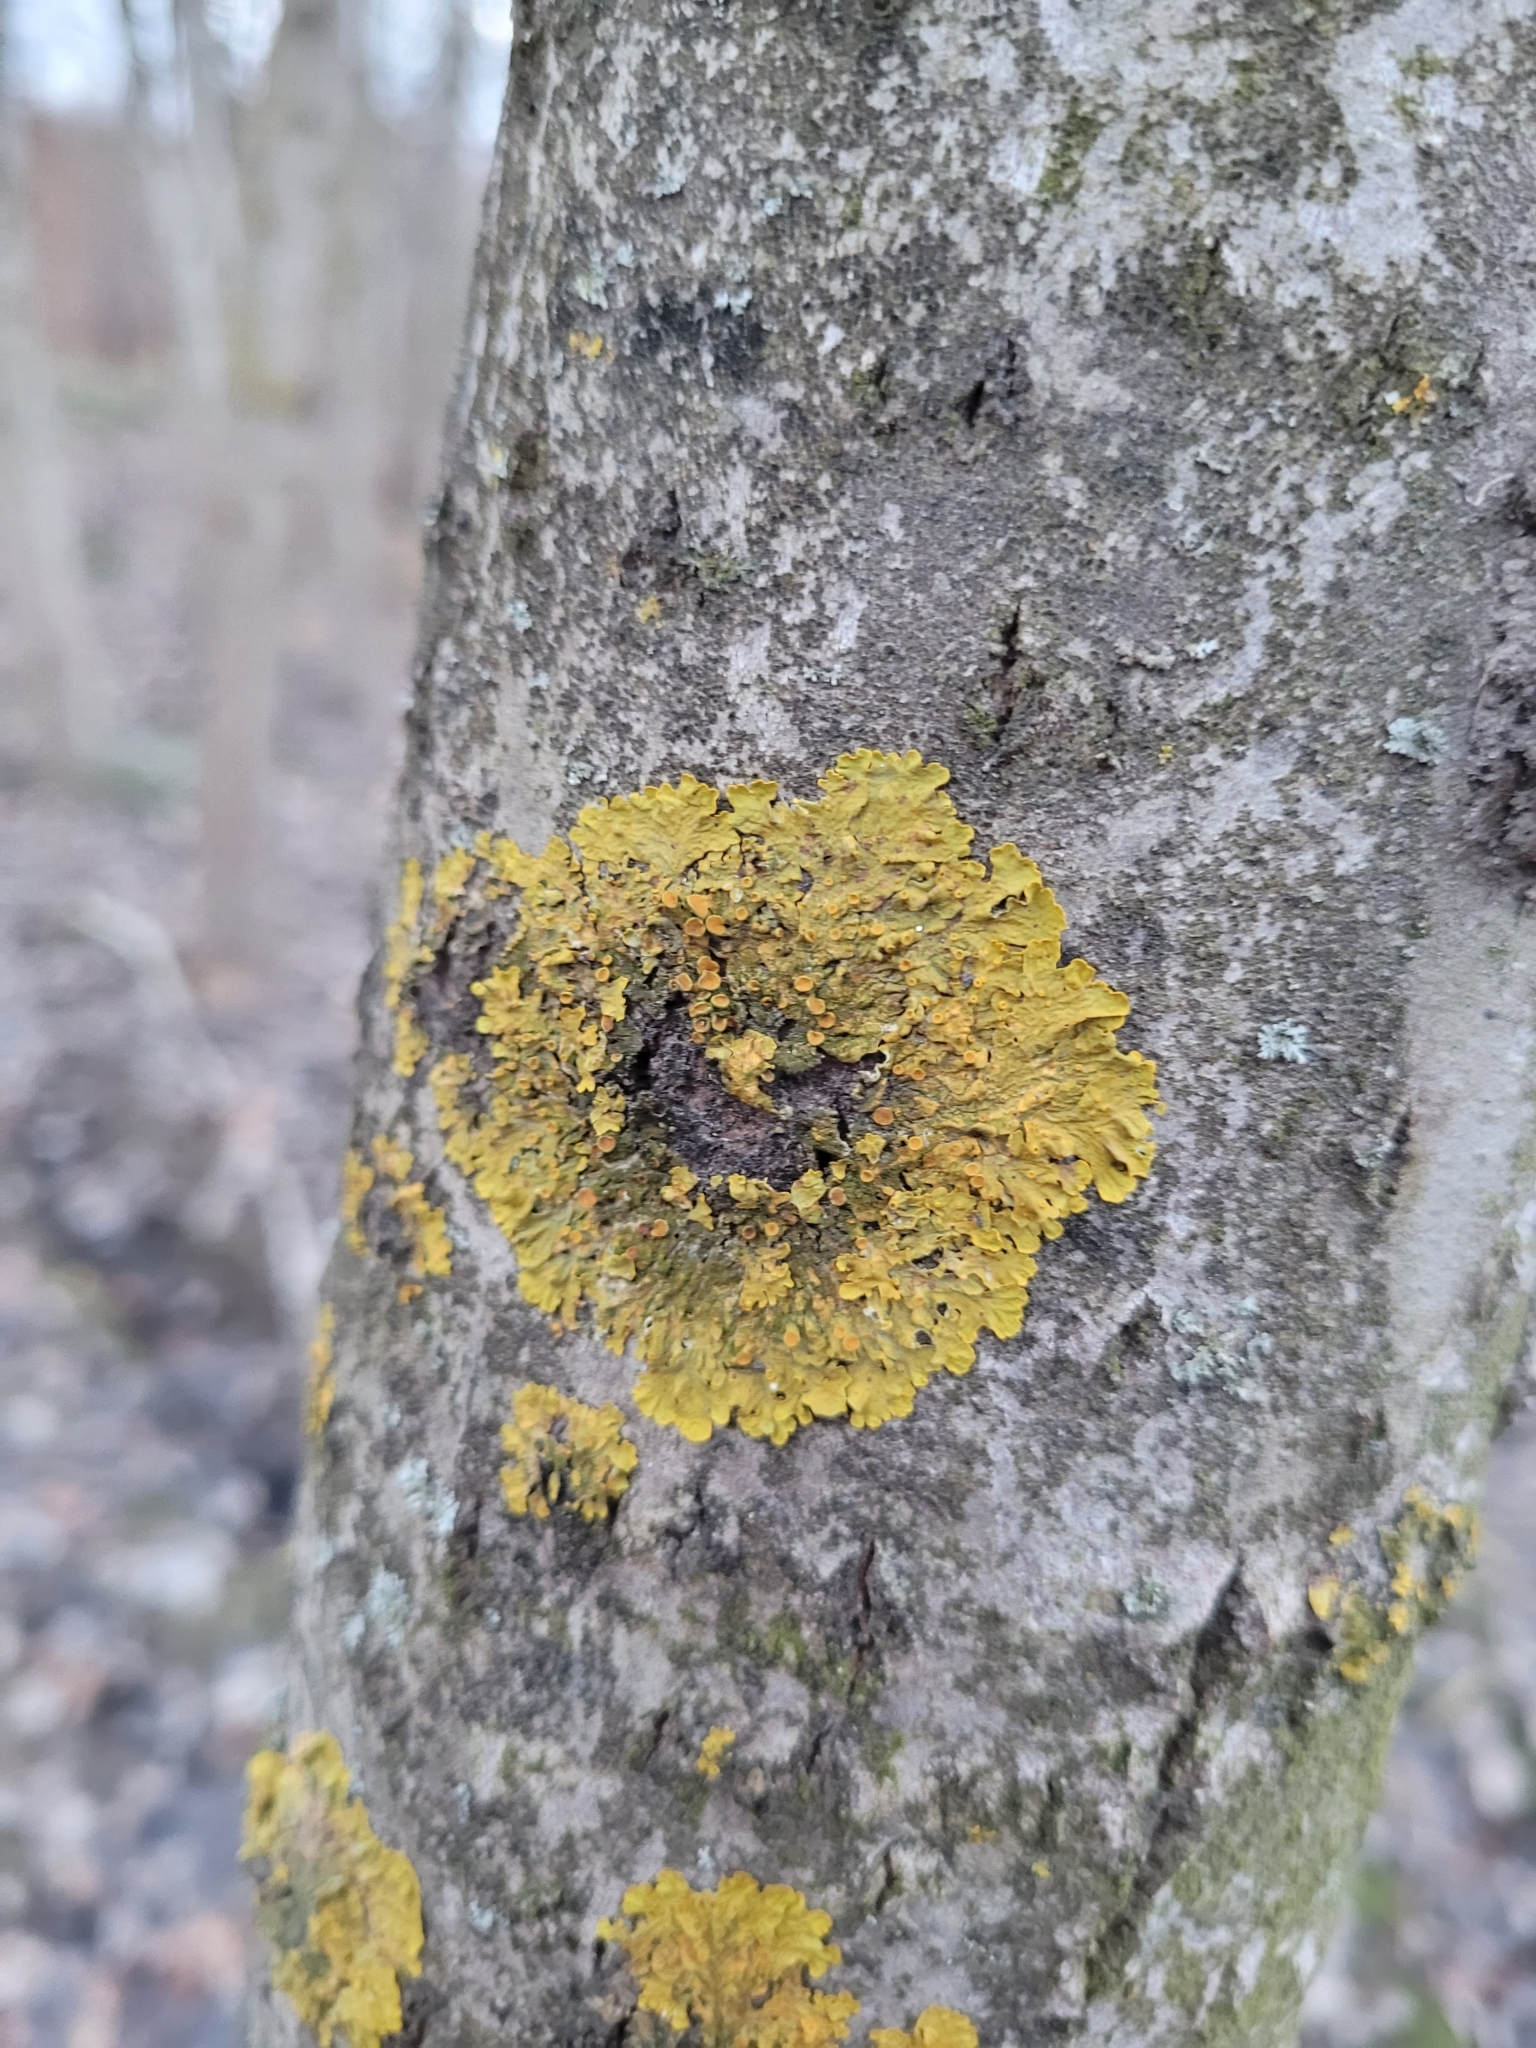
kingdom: Fungi
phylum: Ascomycota
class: Lecanoromycetes
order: Teloschistales
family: Teloschistaceae
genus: Xanthoria
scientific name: Xanthoria parietina
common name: Common orange lichen
